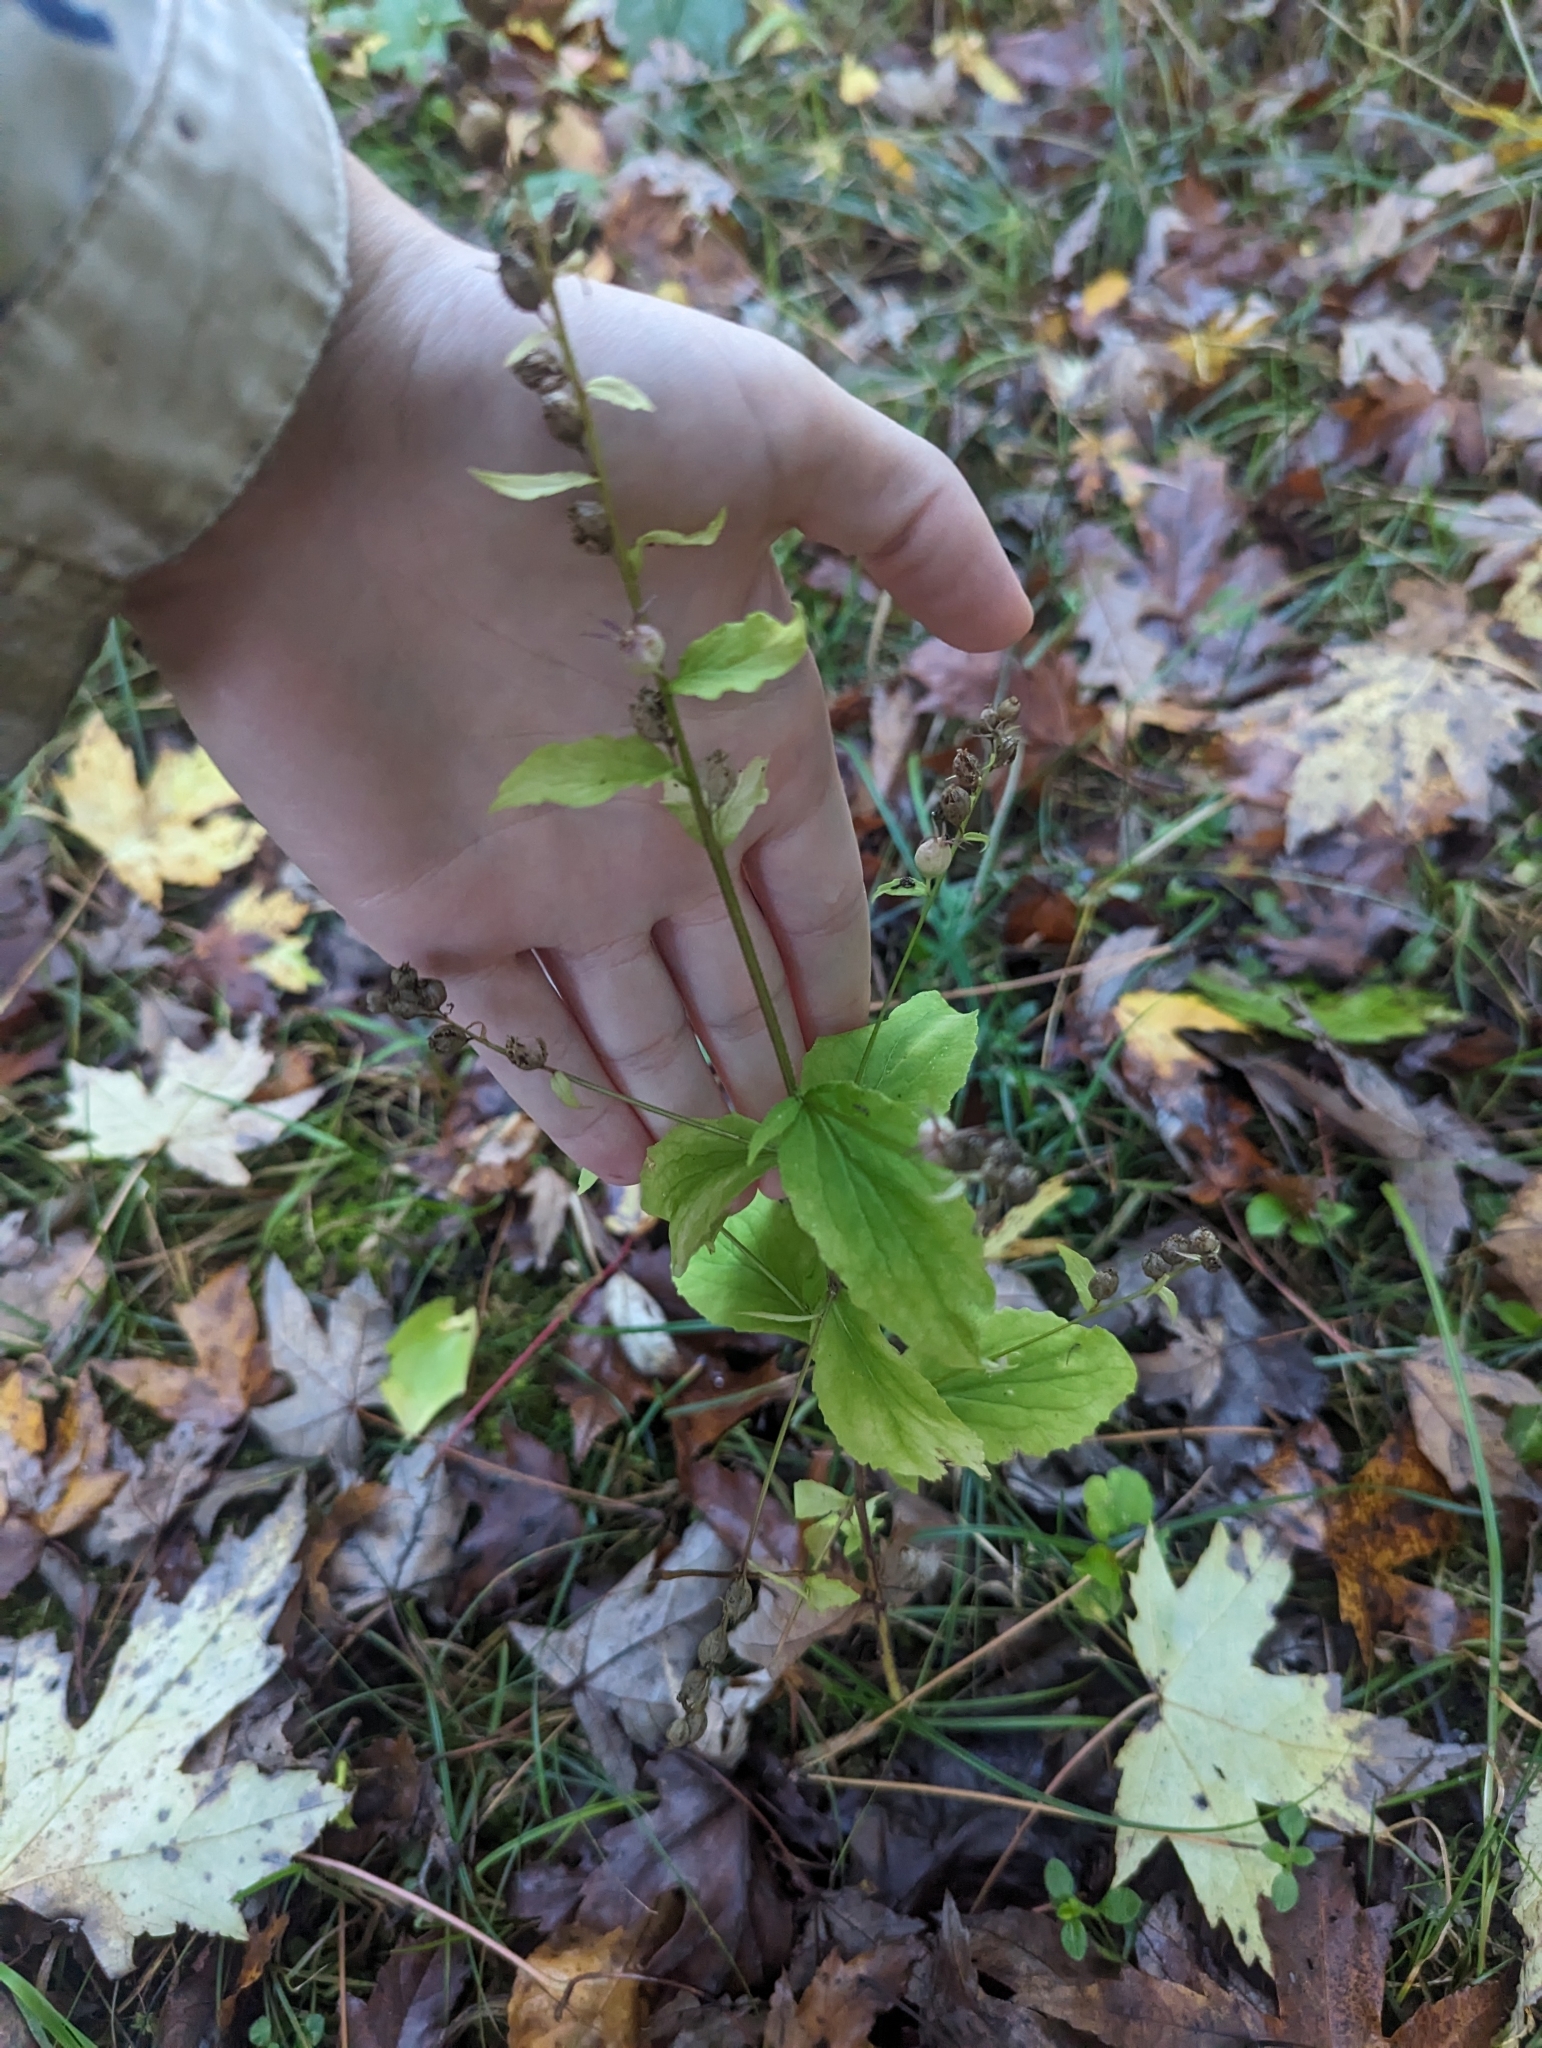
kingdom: Plantae
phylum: Tracheophyta
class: Magnoliopsida
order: Asterales
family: Campanulaceae
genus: Lobelia
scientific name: Lobelia inflata
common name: Indian tobacco
